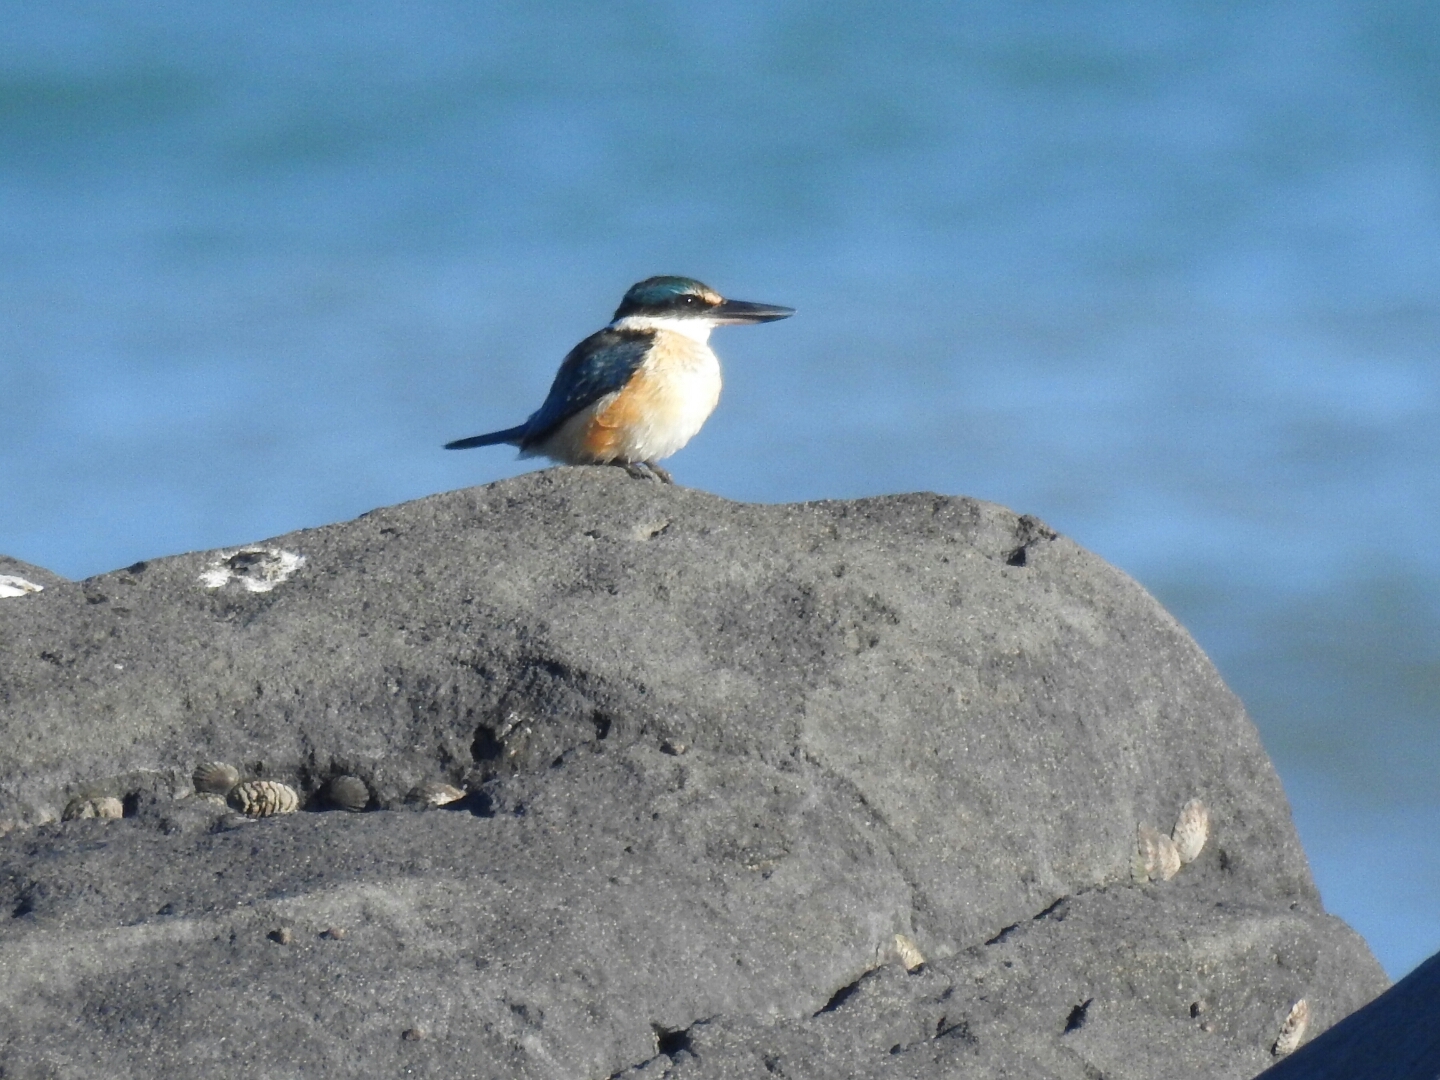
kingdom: Animalia
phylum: Chordata
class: Aves
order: Coraciiformes
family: Alcedinidae
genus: Todiramphus
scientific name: Todiramphus sanctus
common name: Sacred kingfisher
